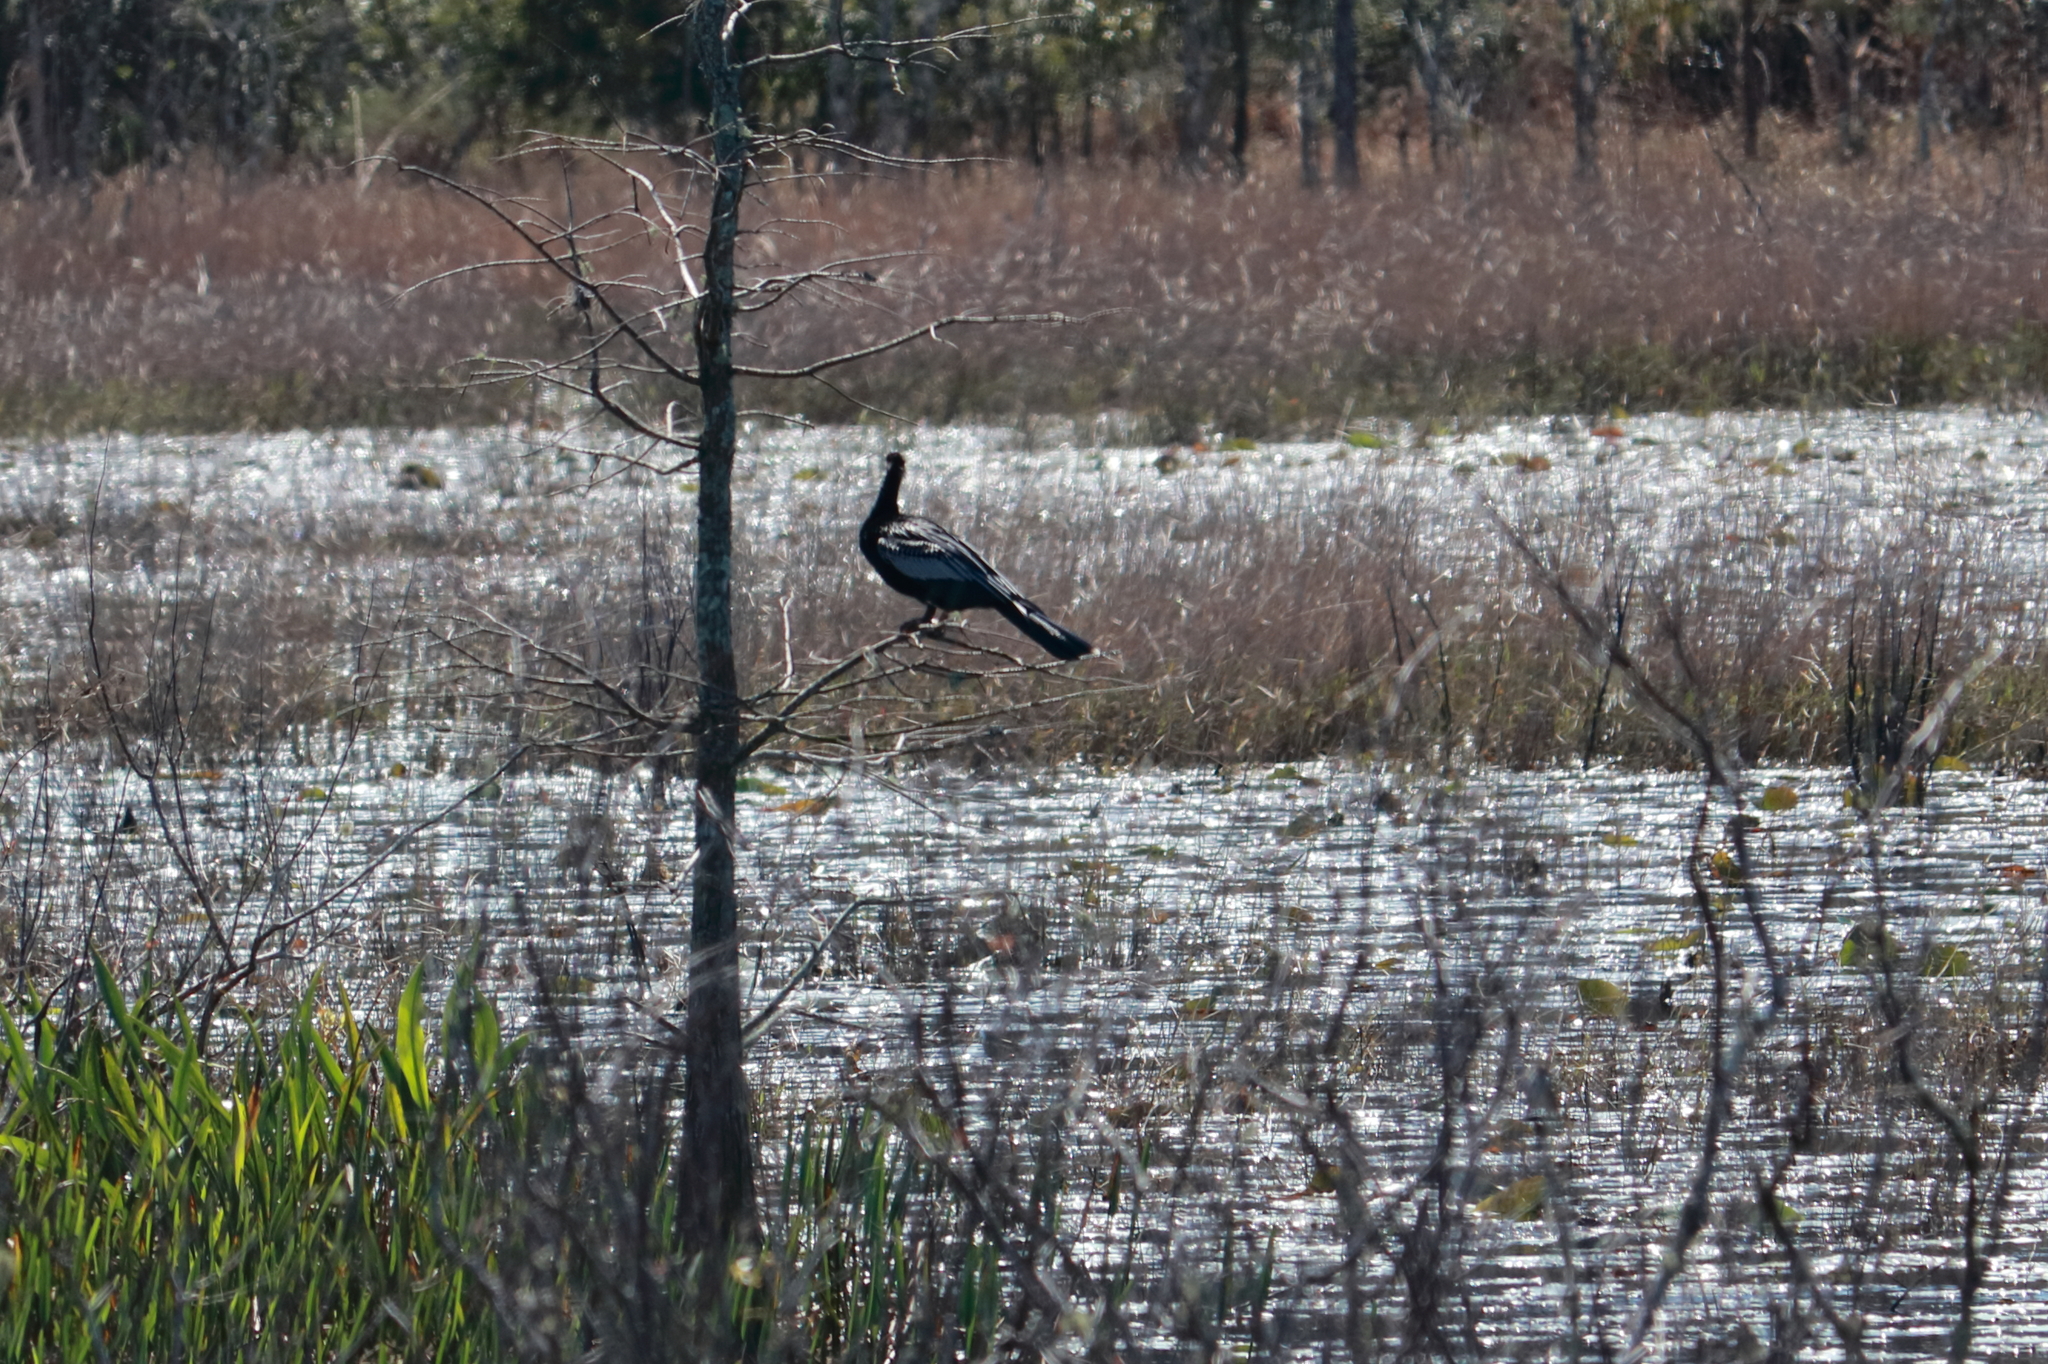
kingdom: Animalia
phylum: Chordata
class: Aves
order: Suliformes
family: Anhingidae
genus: Anhinga
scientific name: Anhinga anhinga
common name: Anhinga
